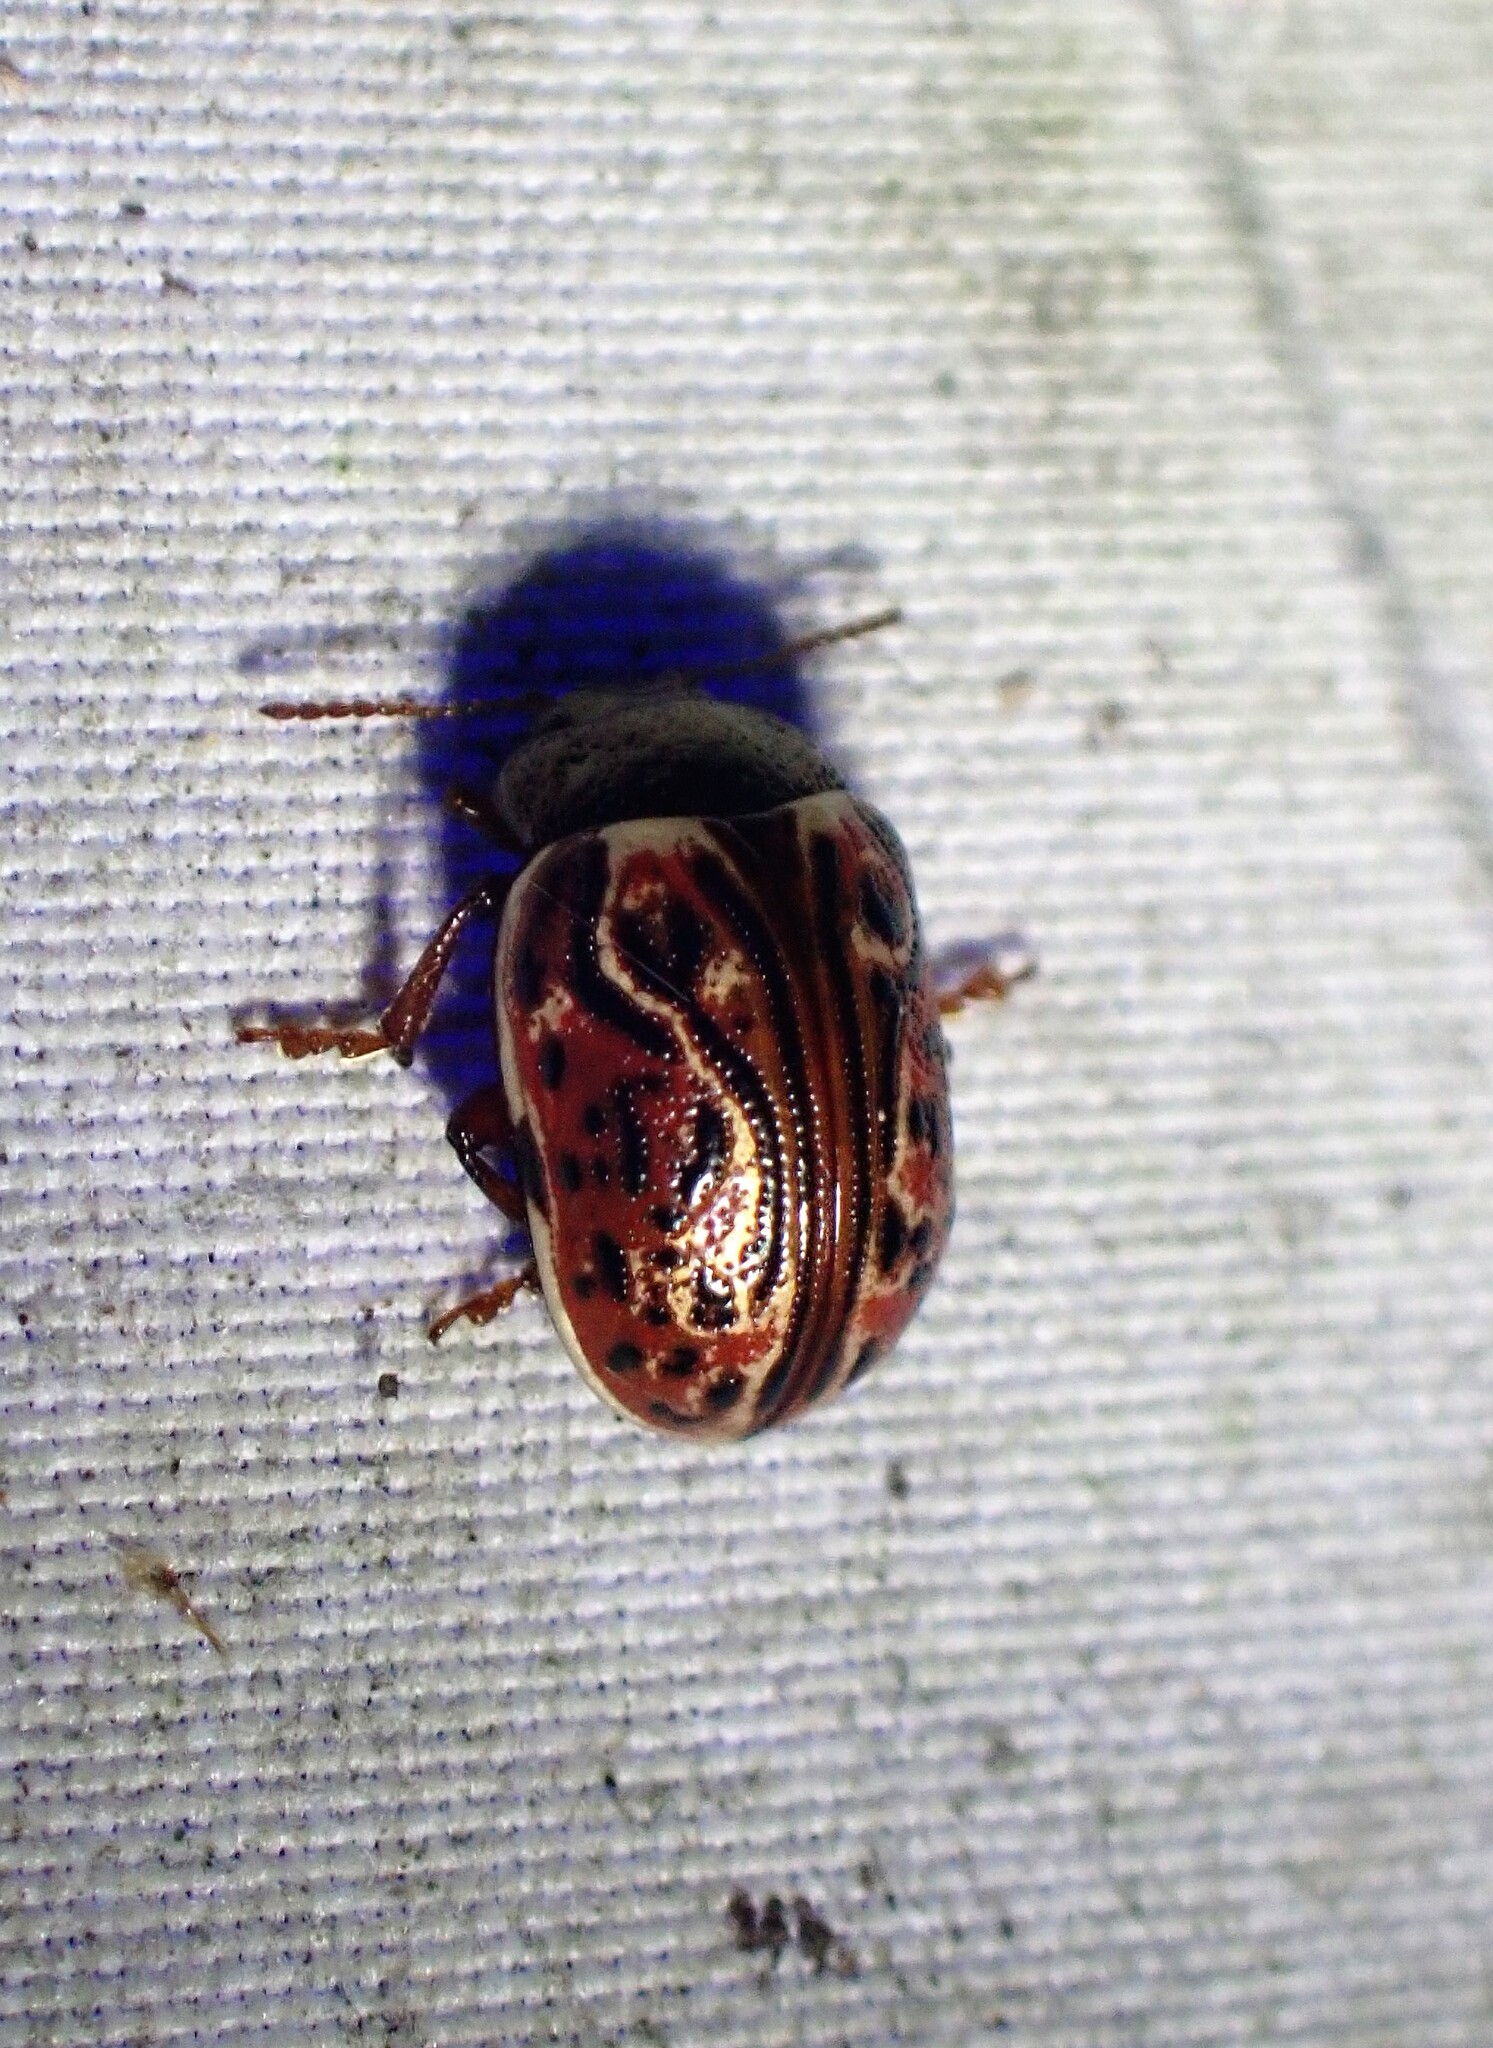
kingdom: Animalia
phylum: Arthropoda
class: Insecta
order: Coleoptera
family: Chrysomelidae
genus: Calligrapha
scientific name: Calligrapha alni
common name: Russet alder leaf beetle
